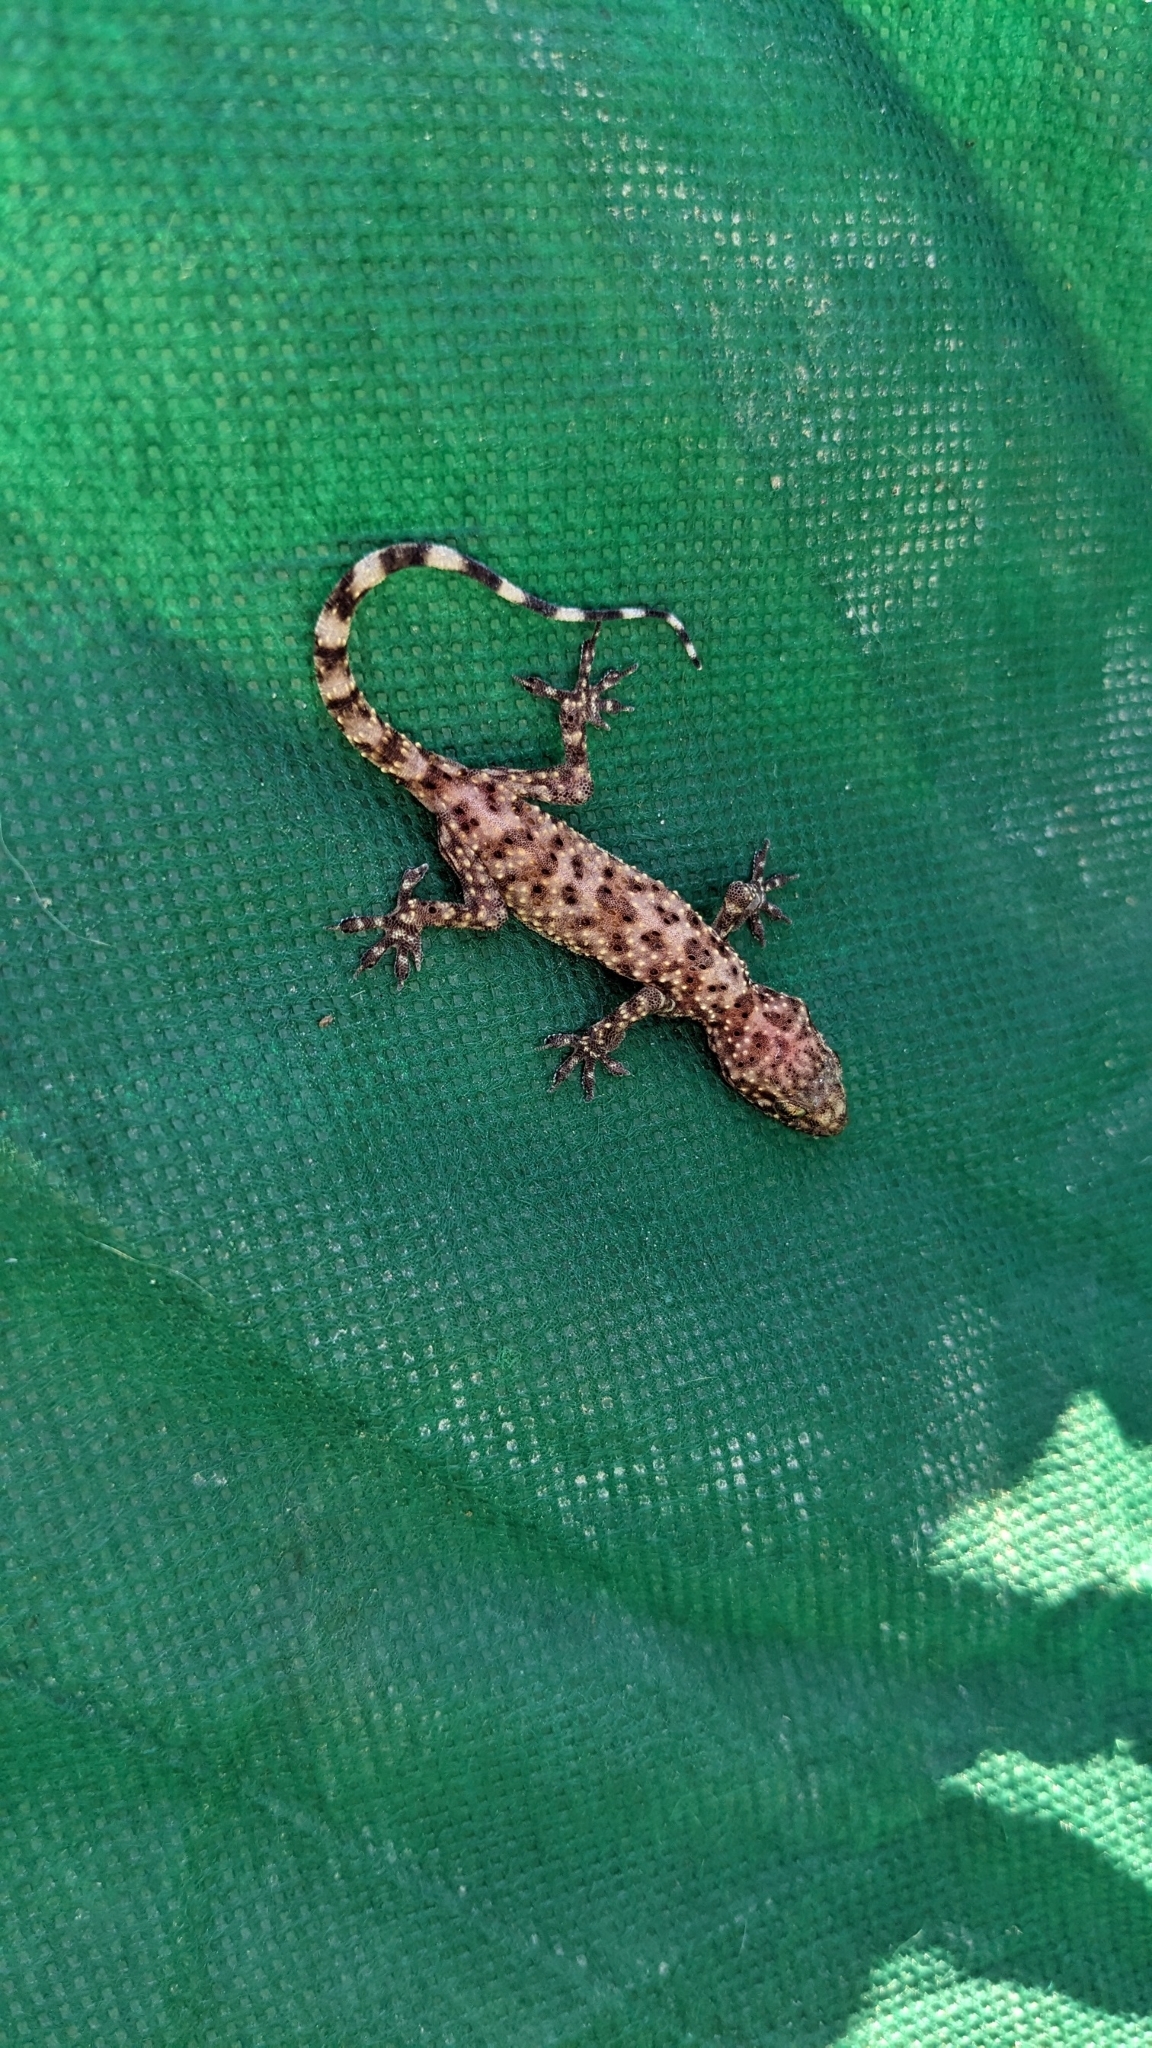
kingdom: Animalia
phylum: Chordata
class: Squamata
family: Gekkonidae
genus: Hemidactylus
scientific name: Hemidactylus turcicus
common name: Turkish gecko
